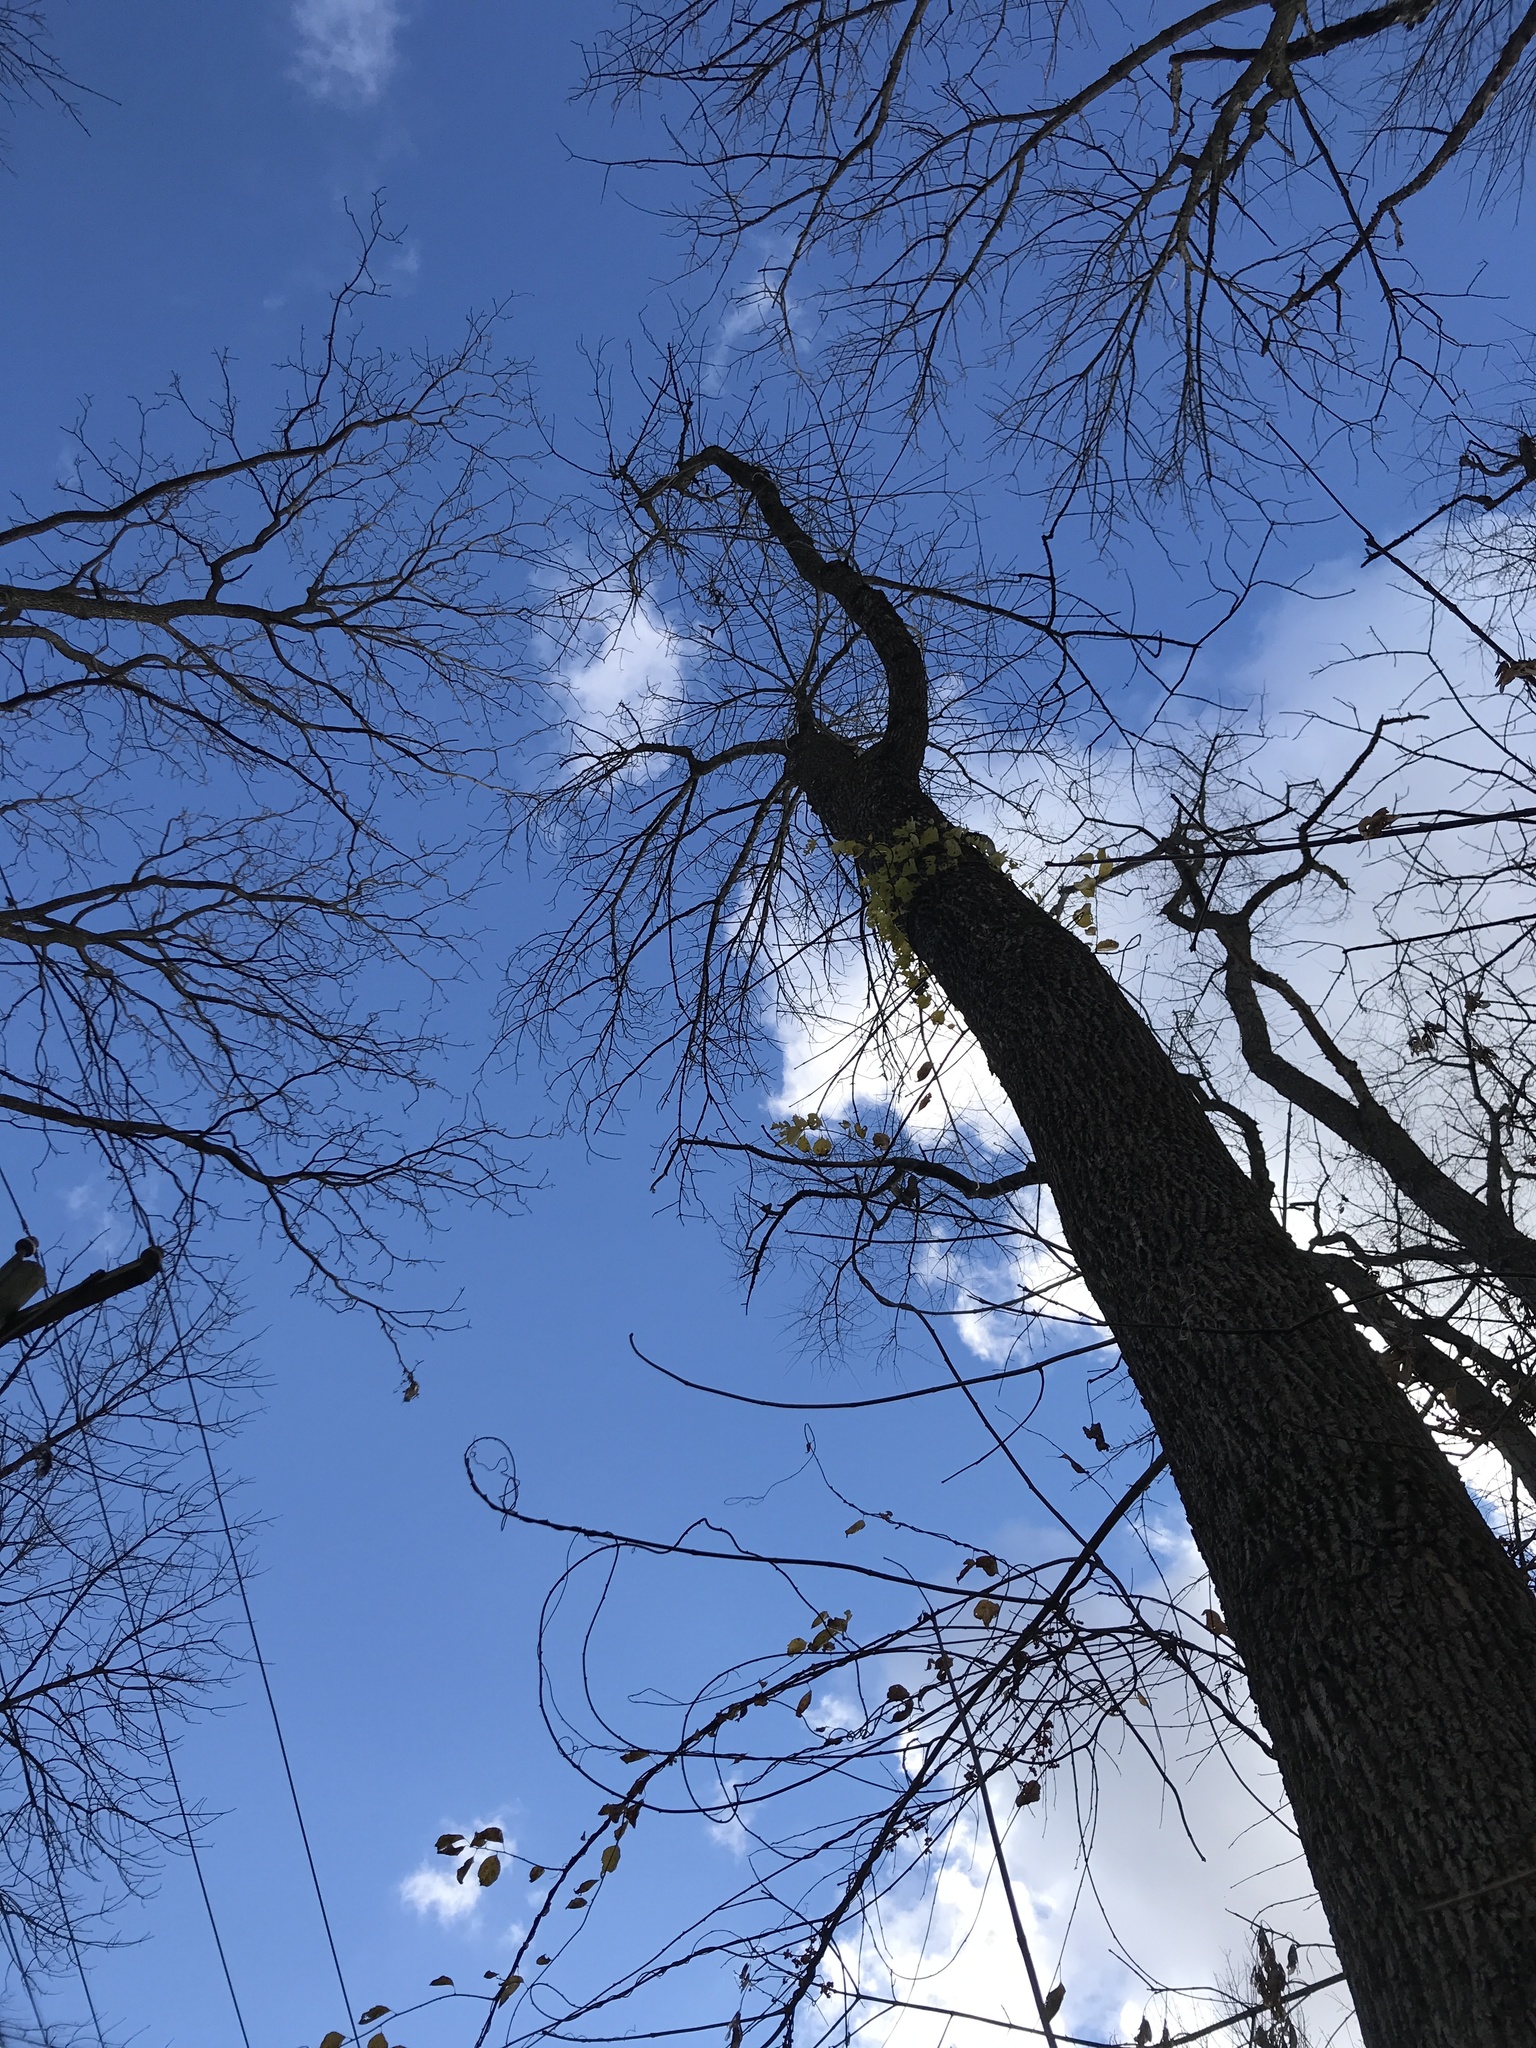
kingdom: Animalia
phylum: Arthropoda
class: Insecta
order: Coleoptera
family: Buprestidae
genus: Agrilus
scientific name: Agrilus planipennis
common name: Emerald ash borer
